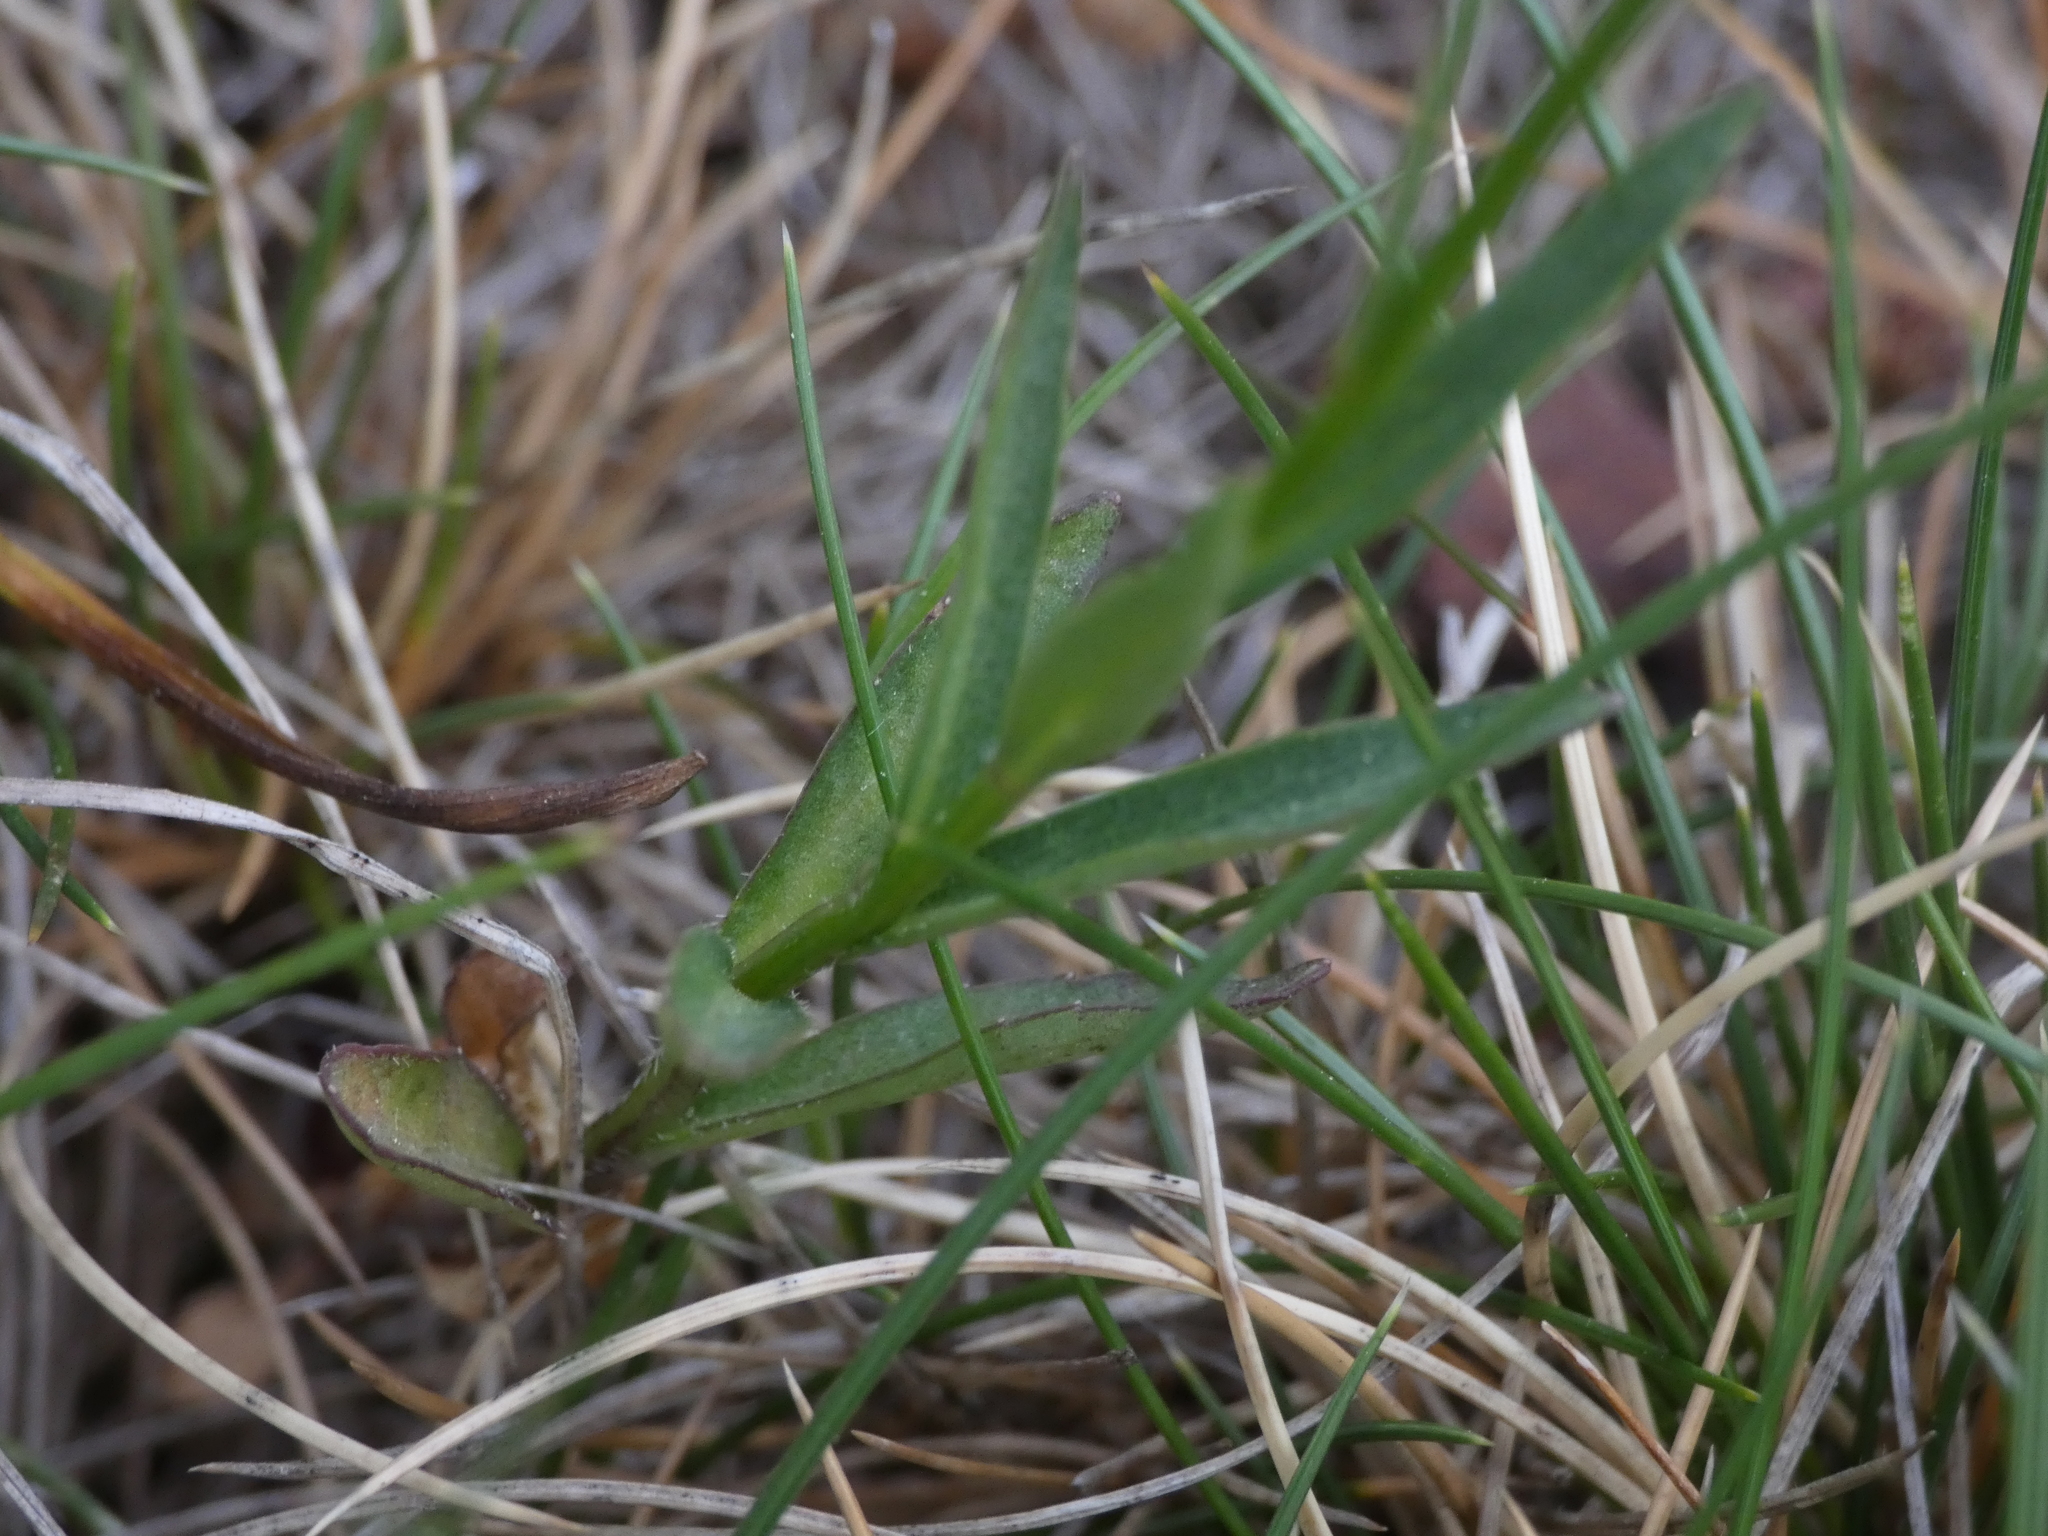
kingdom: Plantae
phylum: Tracheophyta
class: Magnoliopsida
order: Asterales
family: Campanulaceae
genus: Campanula
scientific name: Campanula scheuchzeri
